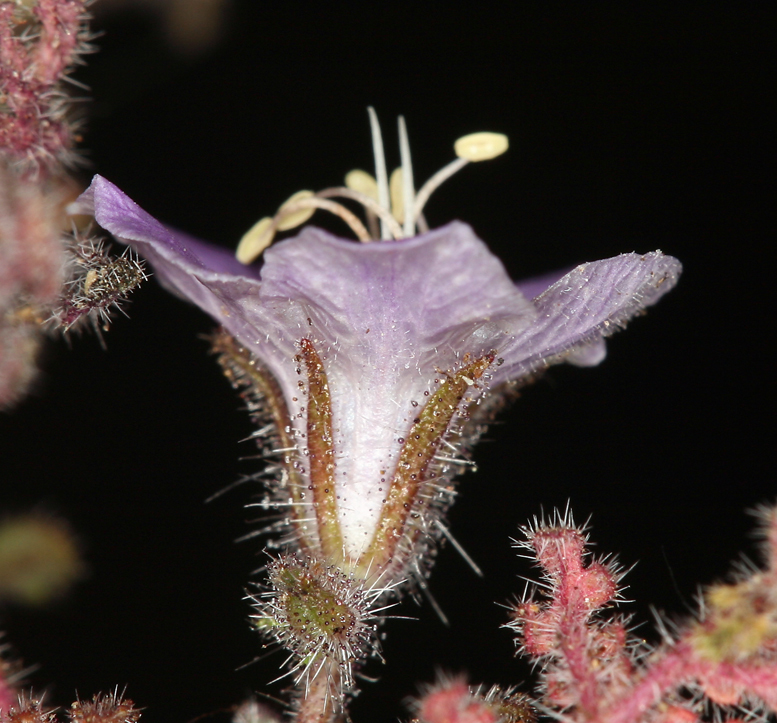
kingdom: Plantae
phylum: Tracheophyta
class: Magnoliopsida
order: Boraginales
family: Hydrophyllaceae
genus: Phacelia
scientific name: Phacelia vallis-mortae
